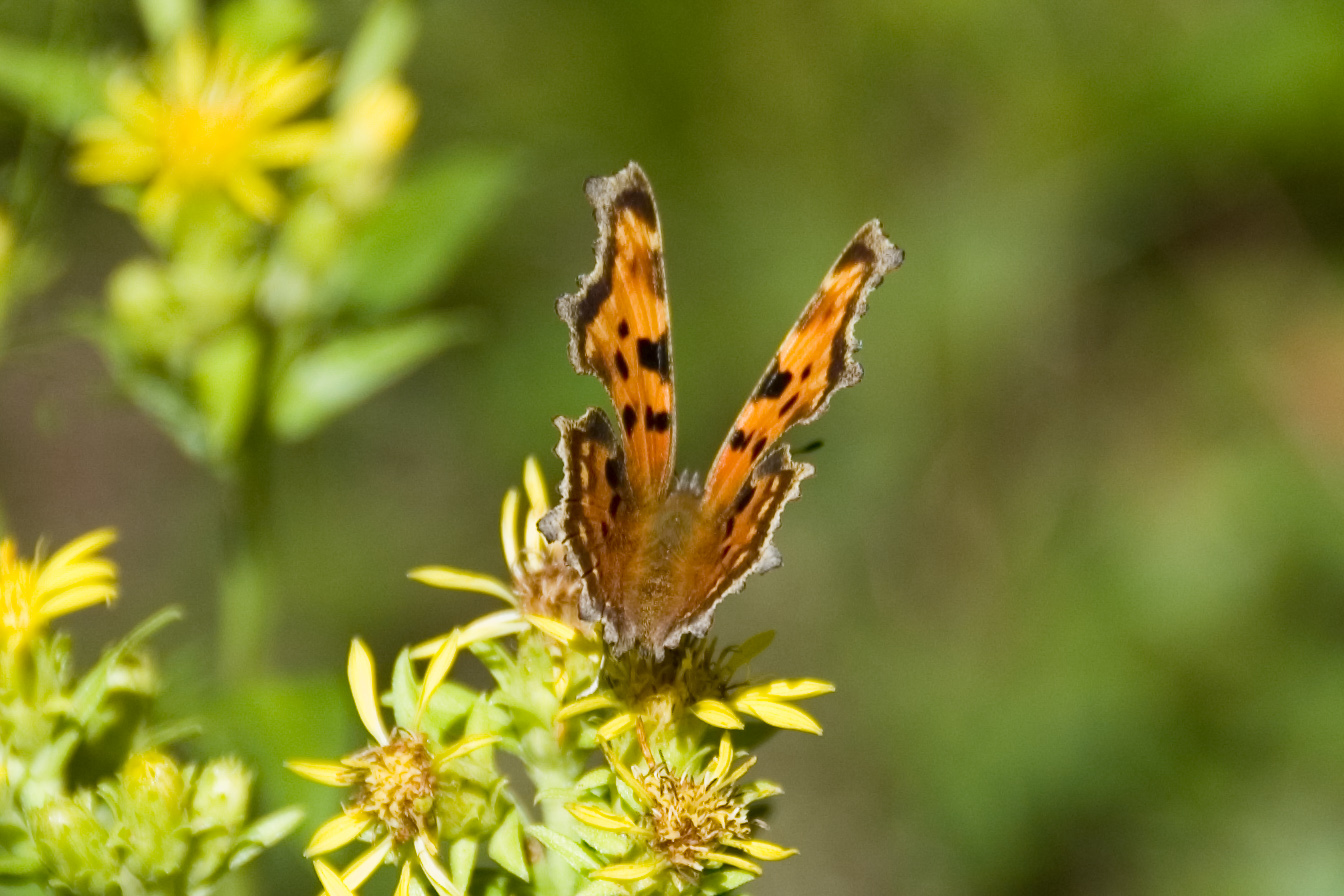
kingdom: Animalia
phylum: Arthropoda
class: Insecta
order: Lepidoptera
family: Nymphalidae
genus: Polygonia
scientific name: Polygonia faunus
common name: Green comma
